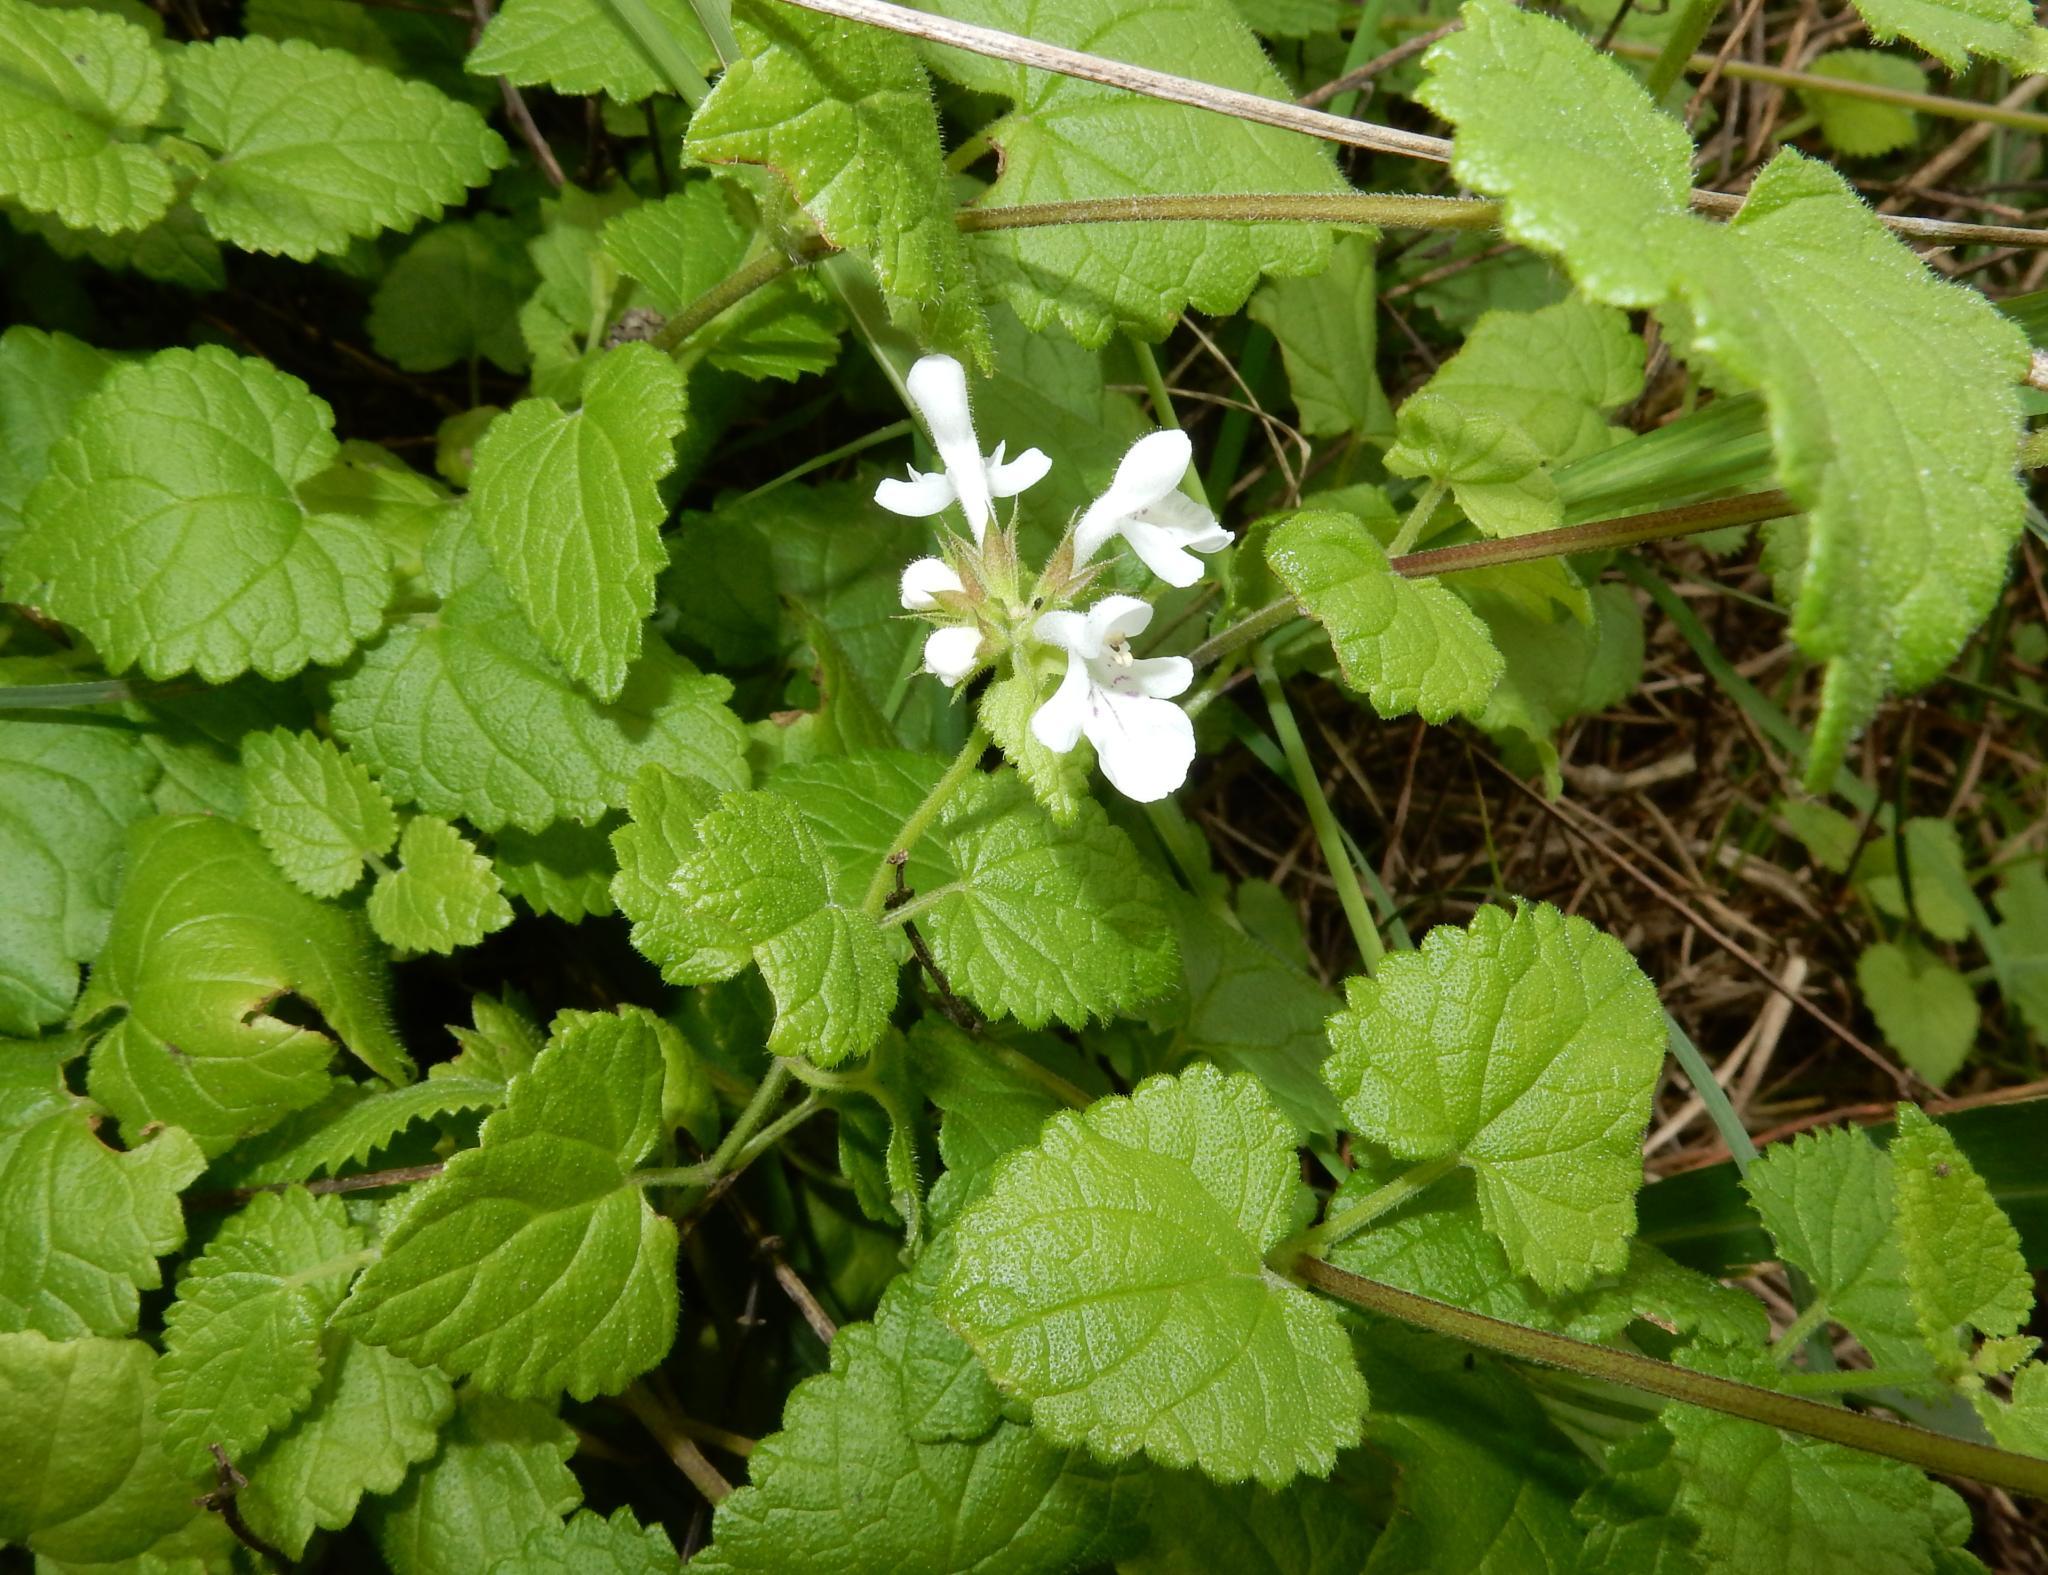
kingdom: Plantae
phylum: Tracheophyta
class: Magnoliopsida
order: Lamiales
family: Lamiaceae
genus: Stachys
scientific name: Stachys aethiopica
